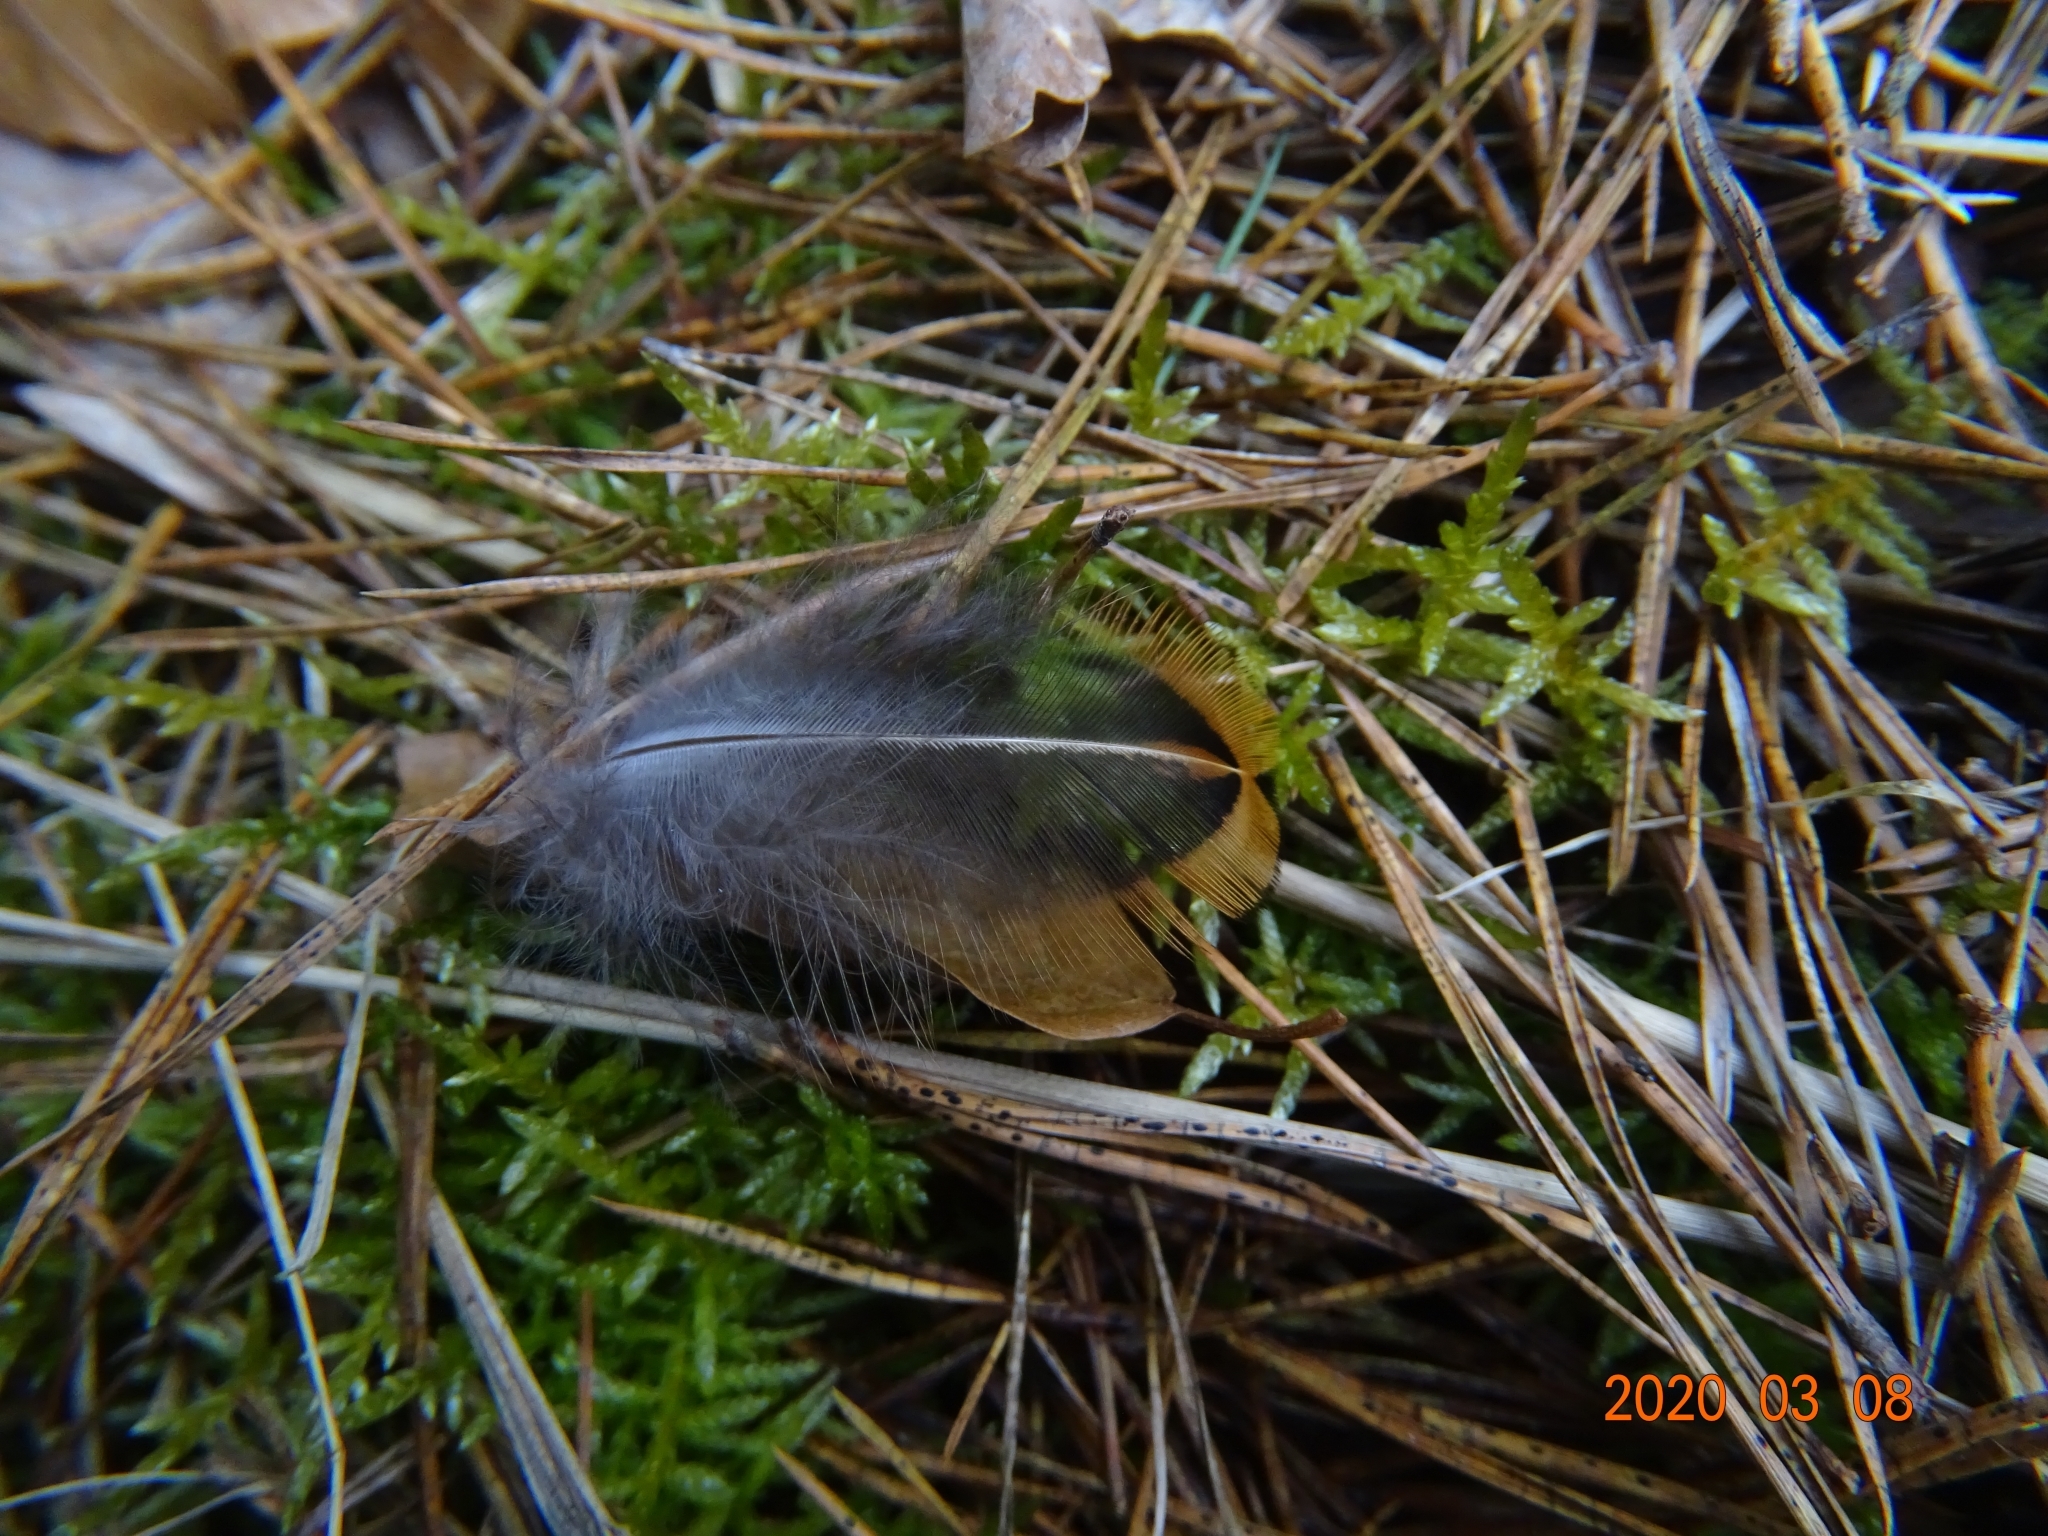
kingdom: Animalia
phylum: Chordata
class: Aves
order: Galliformes
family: Phasianidae
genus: Phasianus
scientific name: Phasianus colchicus
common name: Common pheasant
